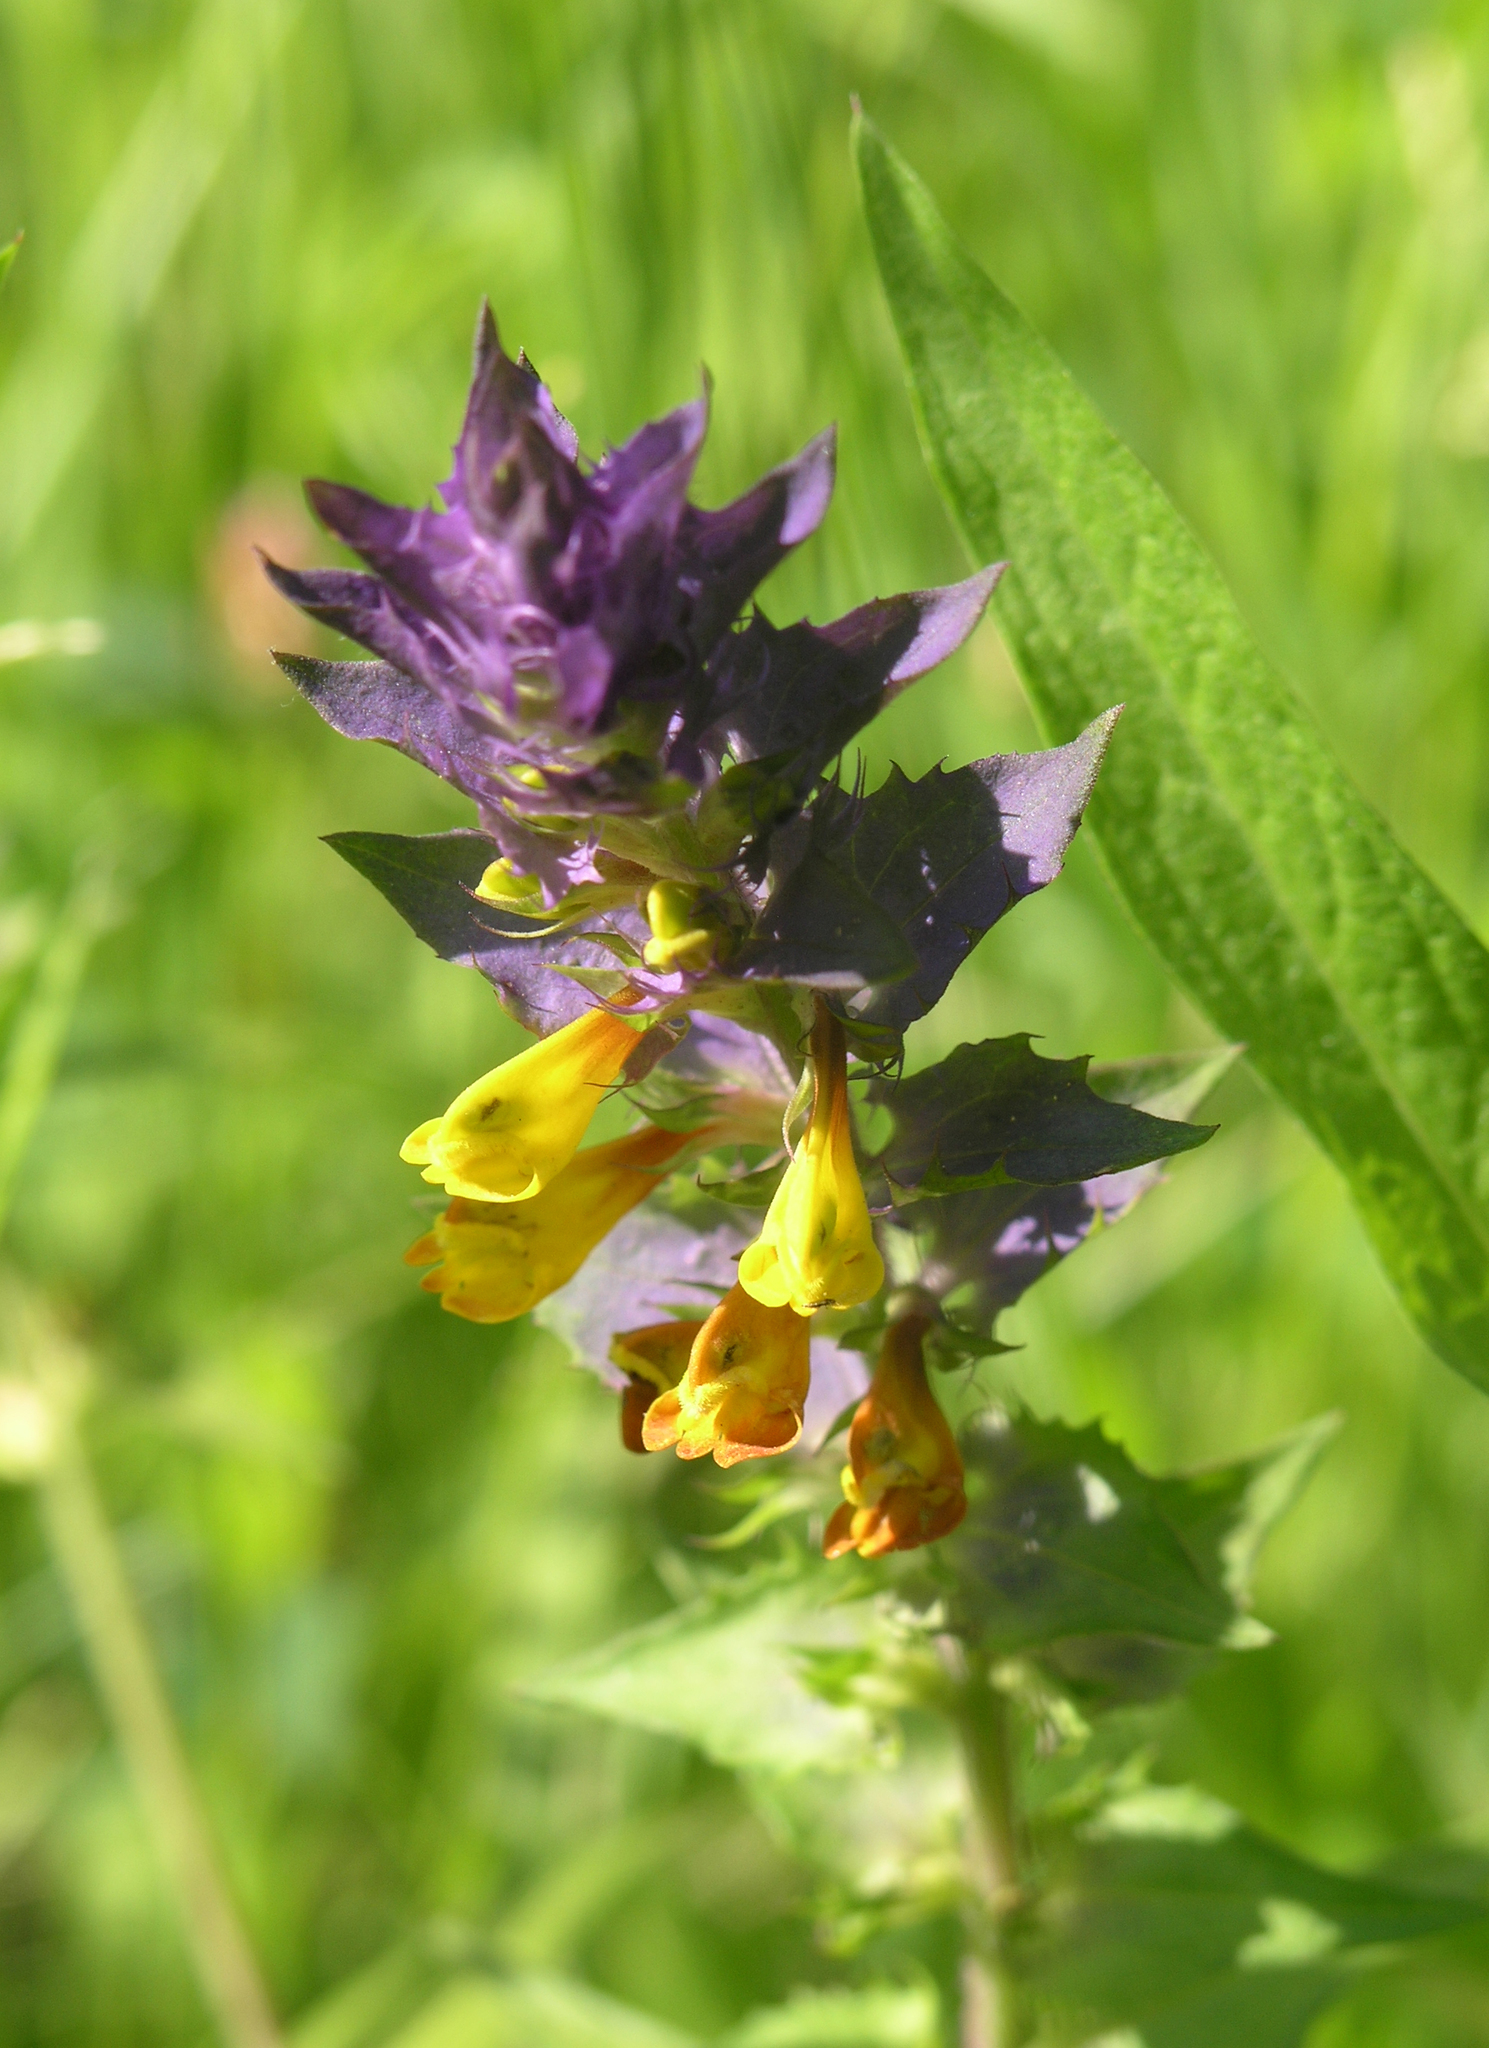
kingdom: Plantae
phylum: Tracheophyta
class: Magnoliopsida
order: Lamiales
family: Orobanchaceae
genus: Melampyrum
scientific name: Melampyrum nemorosum
